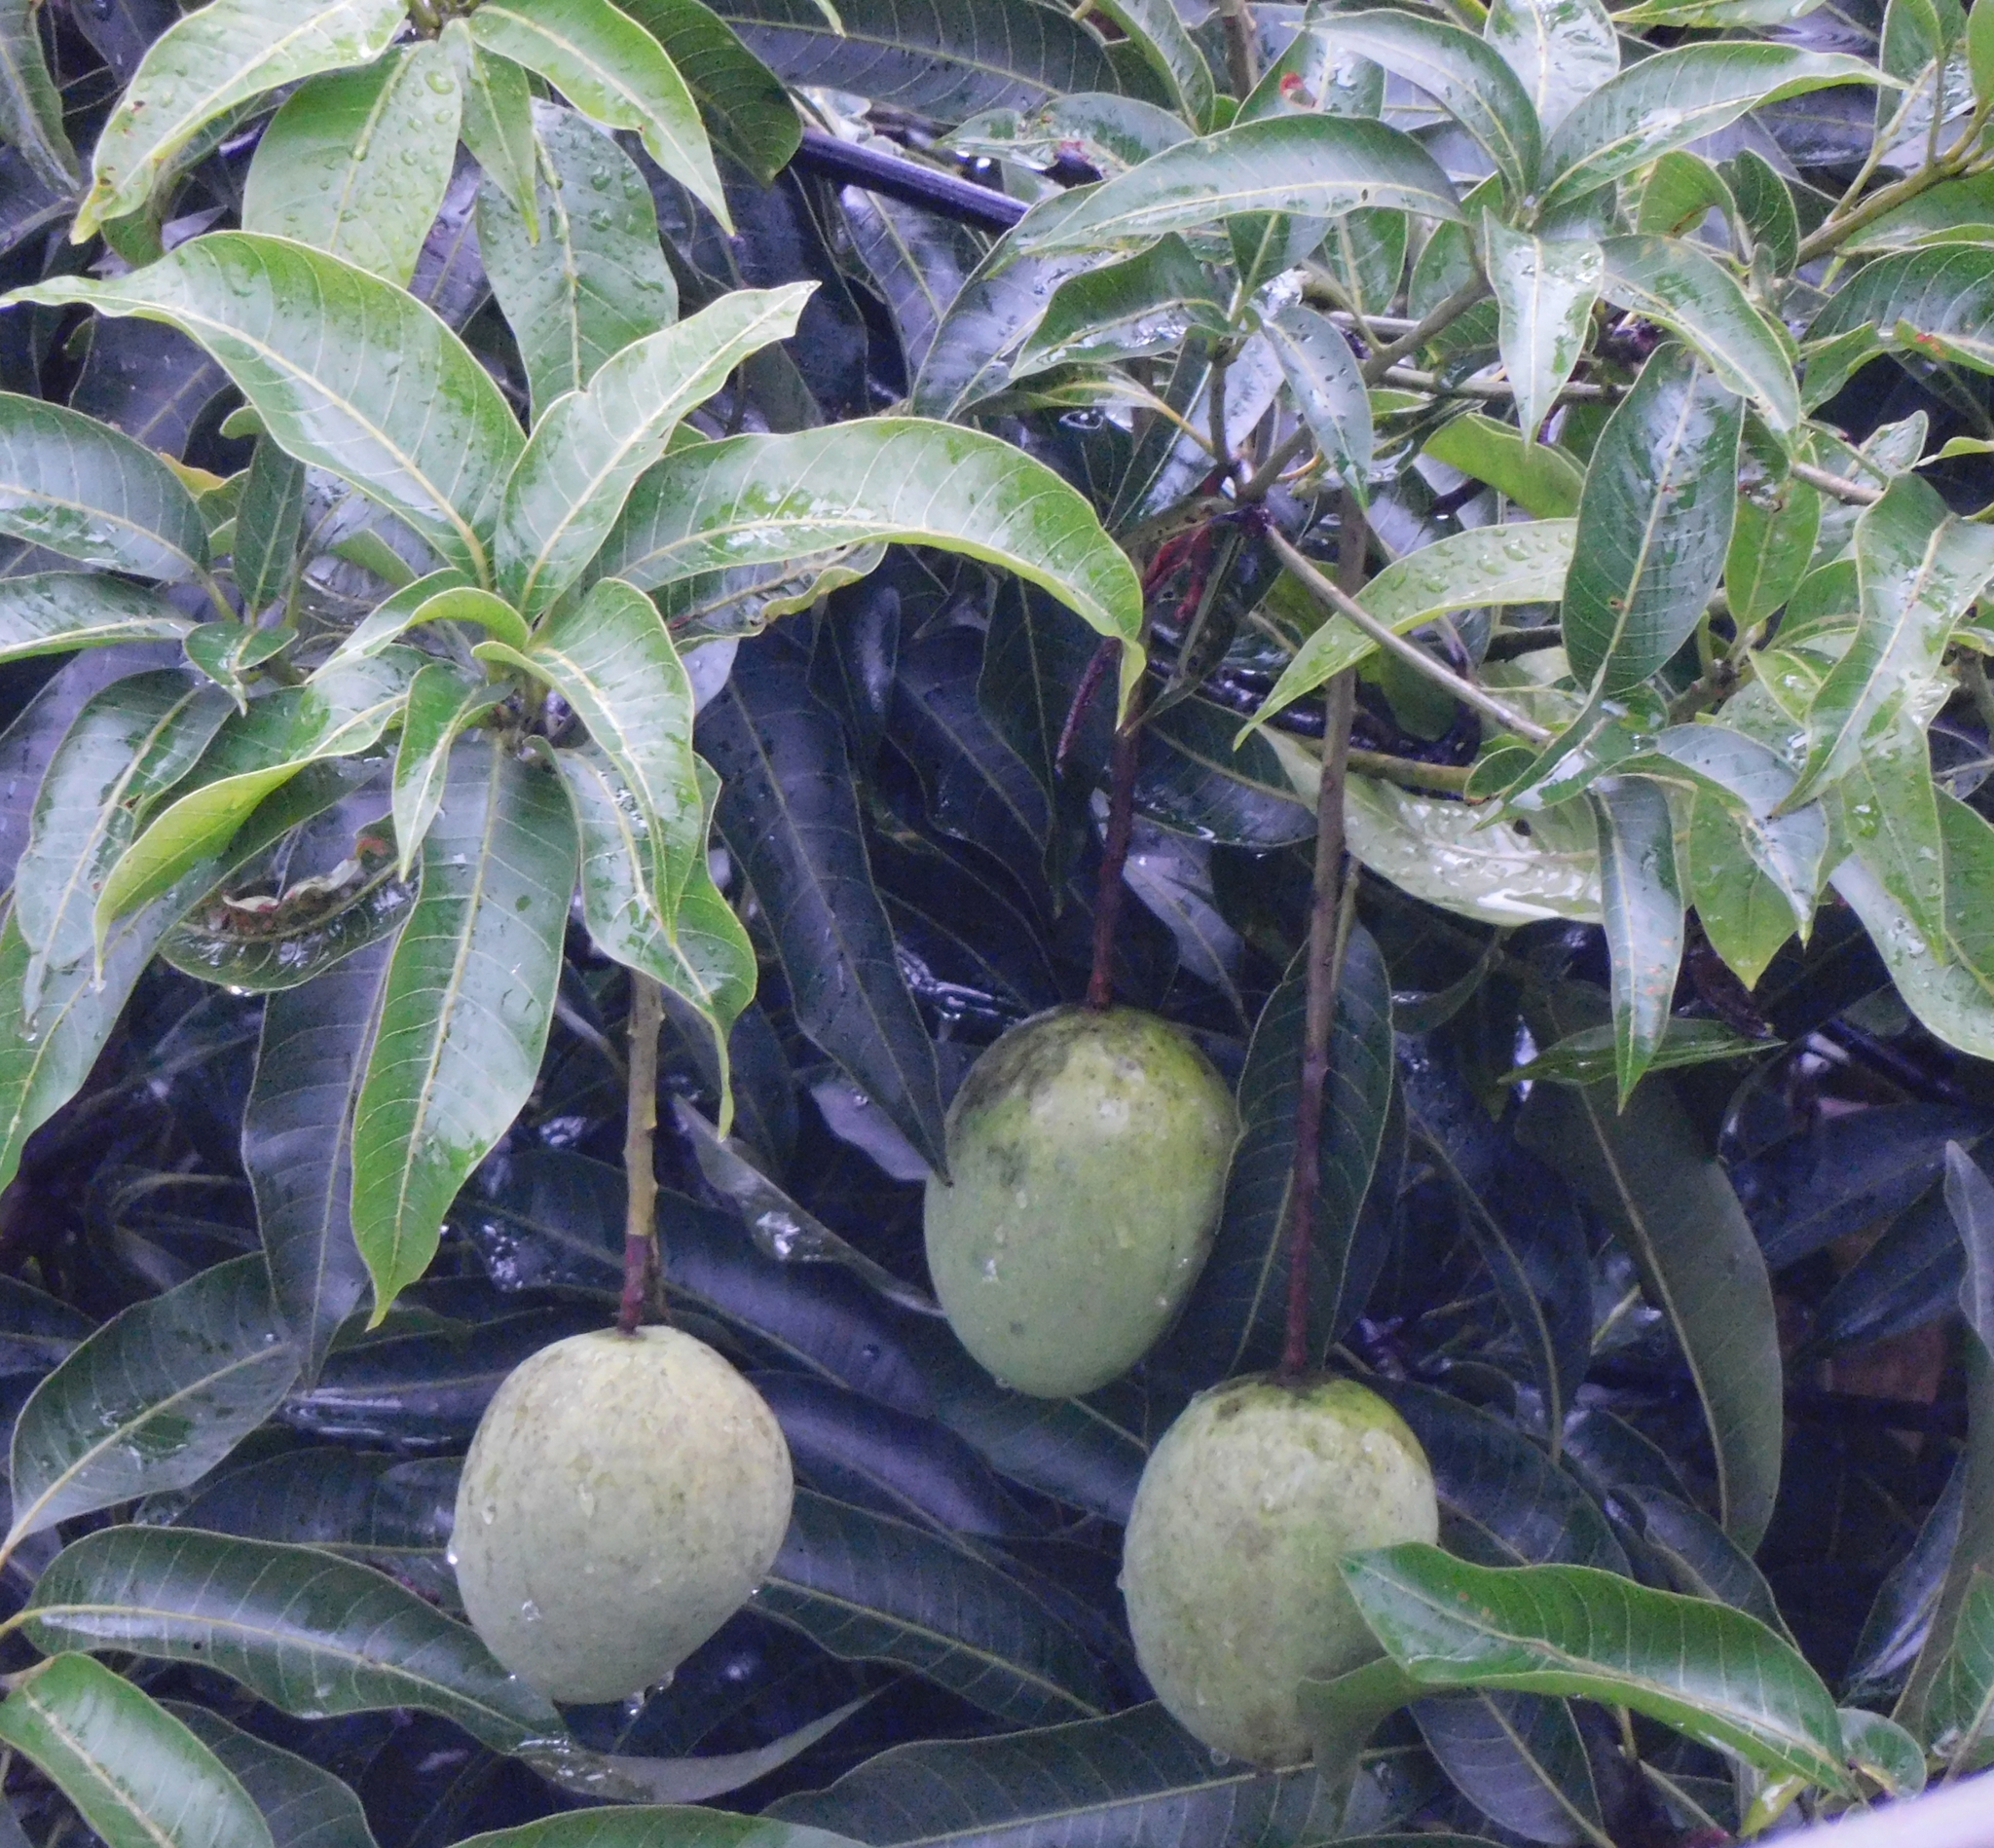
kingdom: Plantae
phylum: Tracheophyta
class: Magnoliopsida
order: Sapindales
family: Anacardiaceae
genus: Mangifera
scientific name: Mangifera indica
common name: Mango
